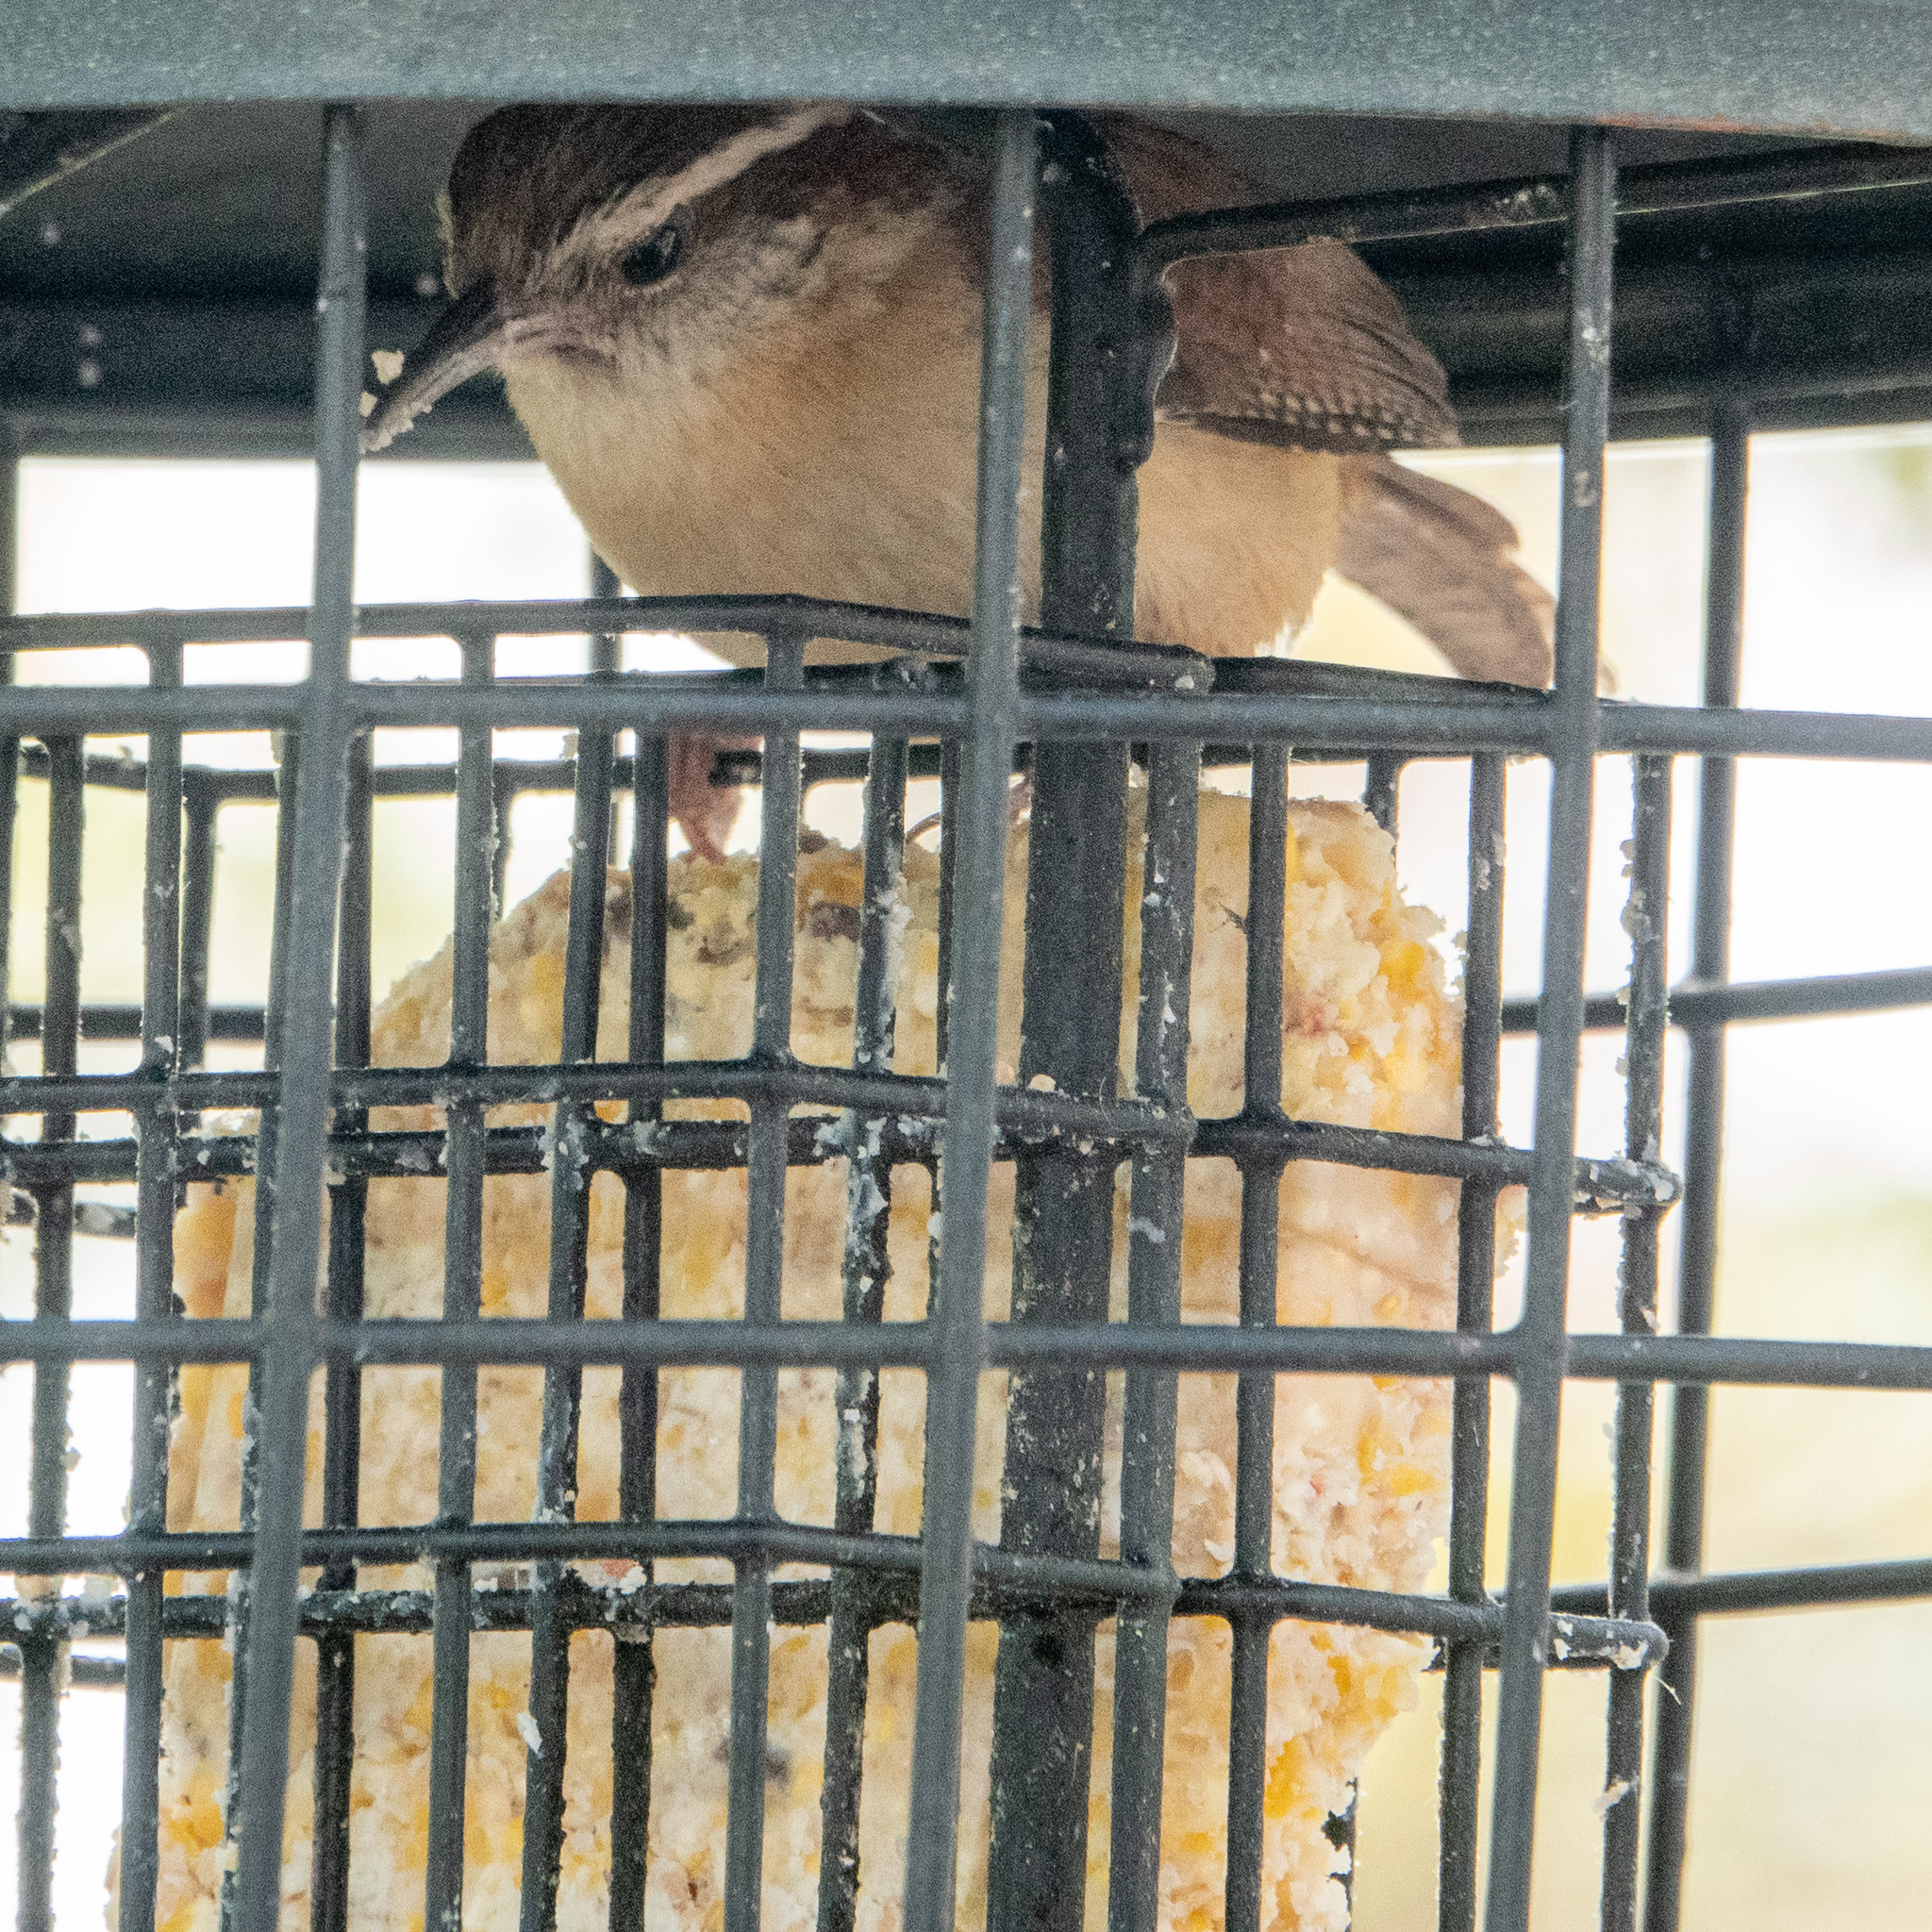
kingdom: Animalia
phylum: Chordata
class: Aves
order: Passeriformes
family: Troglodytidae
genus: Thryothorus
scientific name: Thryothorus ludovicianus
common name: Carolina wren
